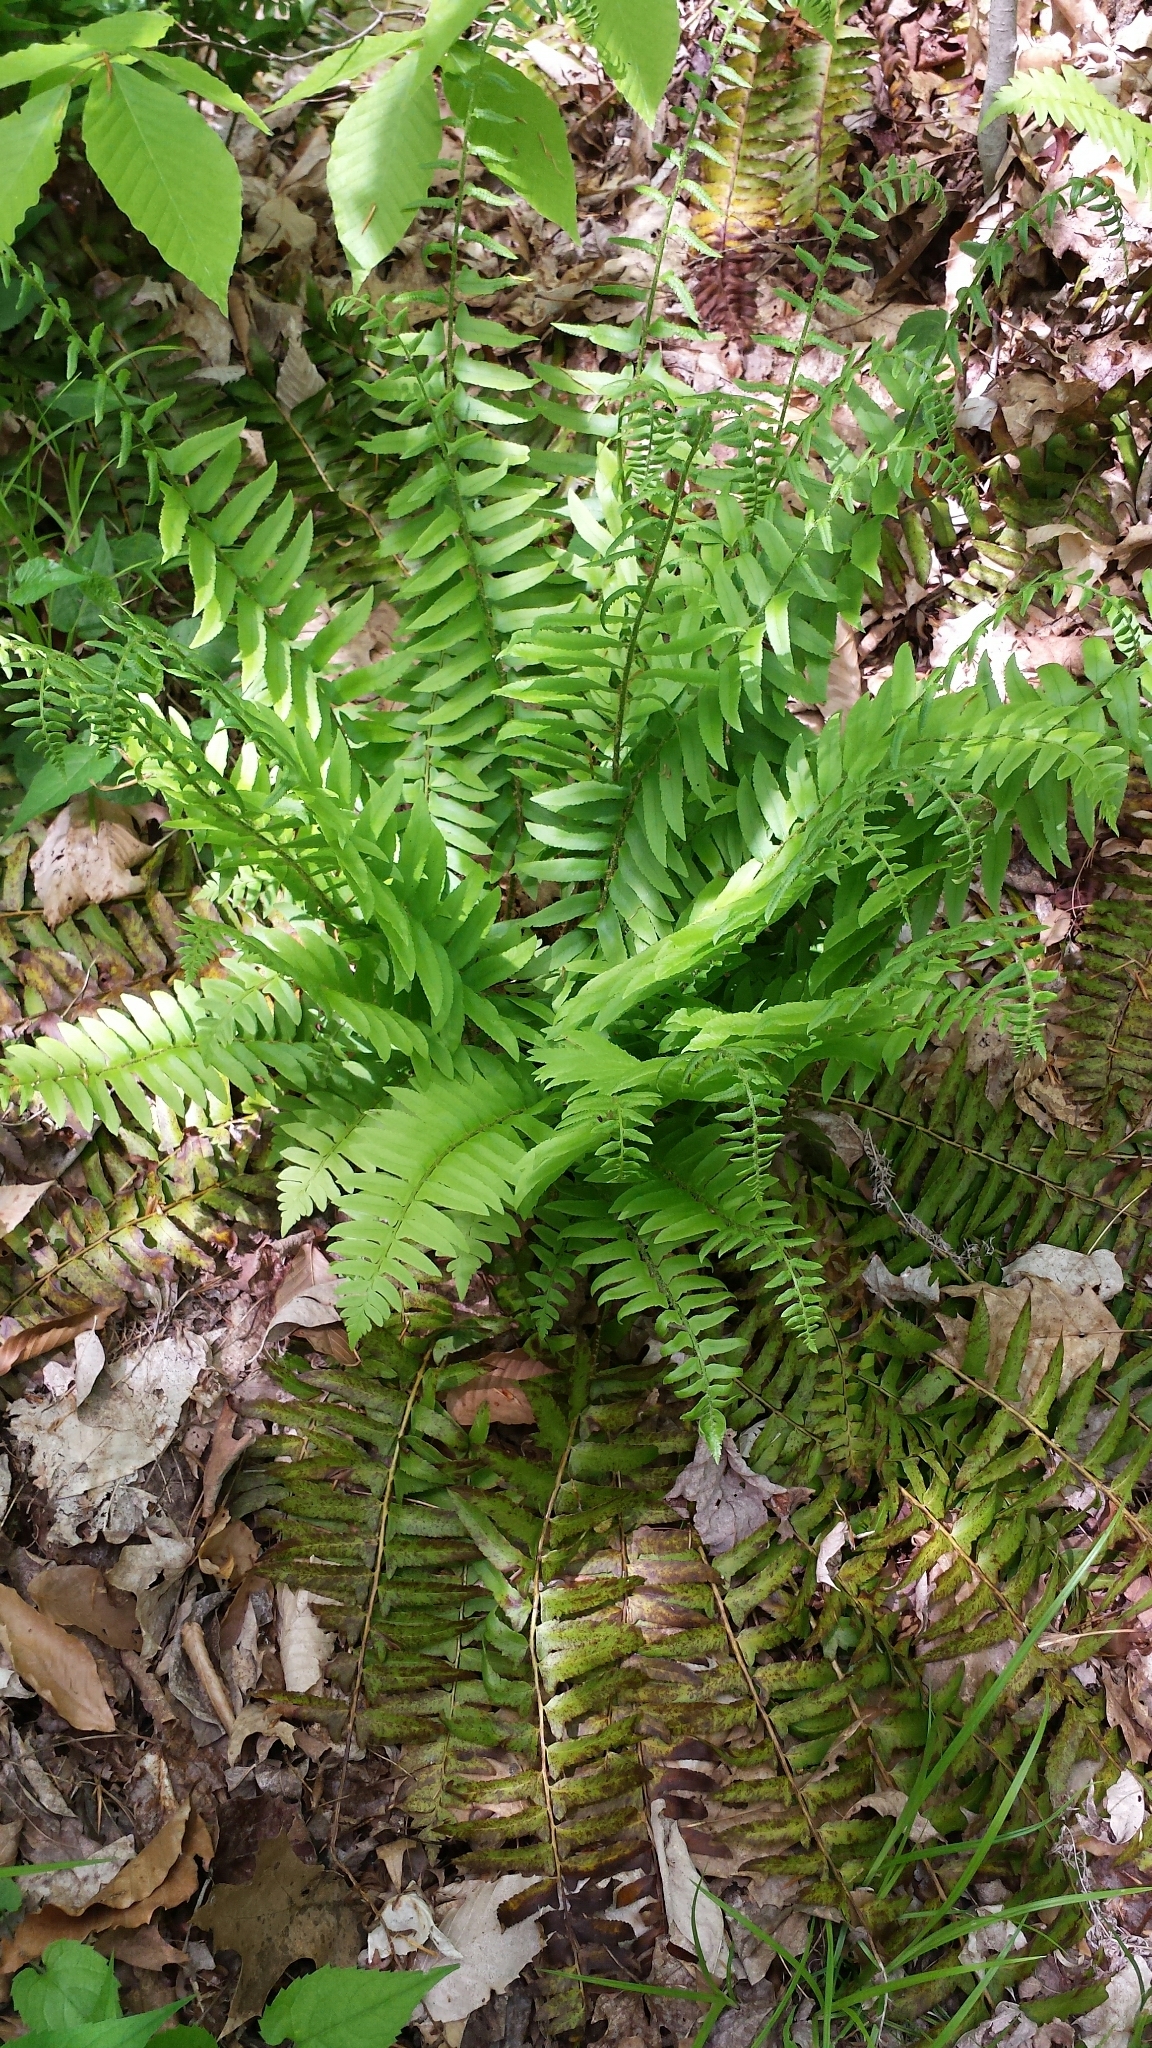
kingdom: Plantae
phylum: Tracheophyta
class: Polypodiopsida
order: Polypodiales
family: Dryopteridaceae
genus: Polystichum
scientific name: Polystichum acrostichoides
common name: Christmas fern
